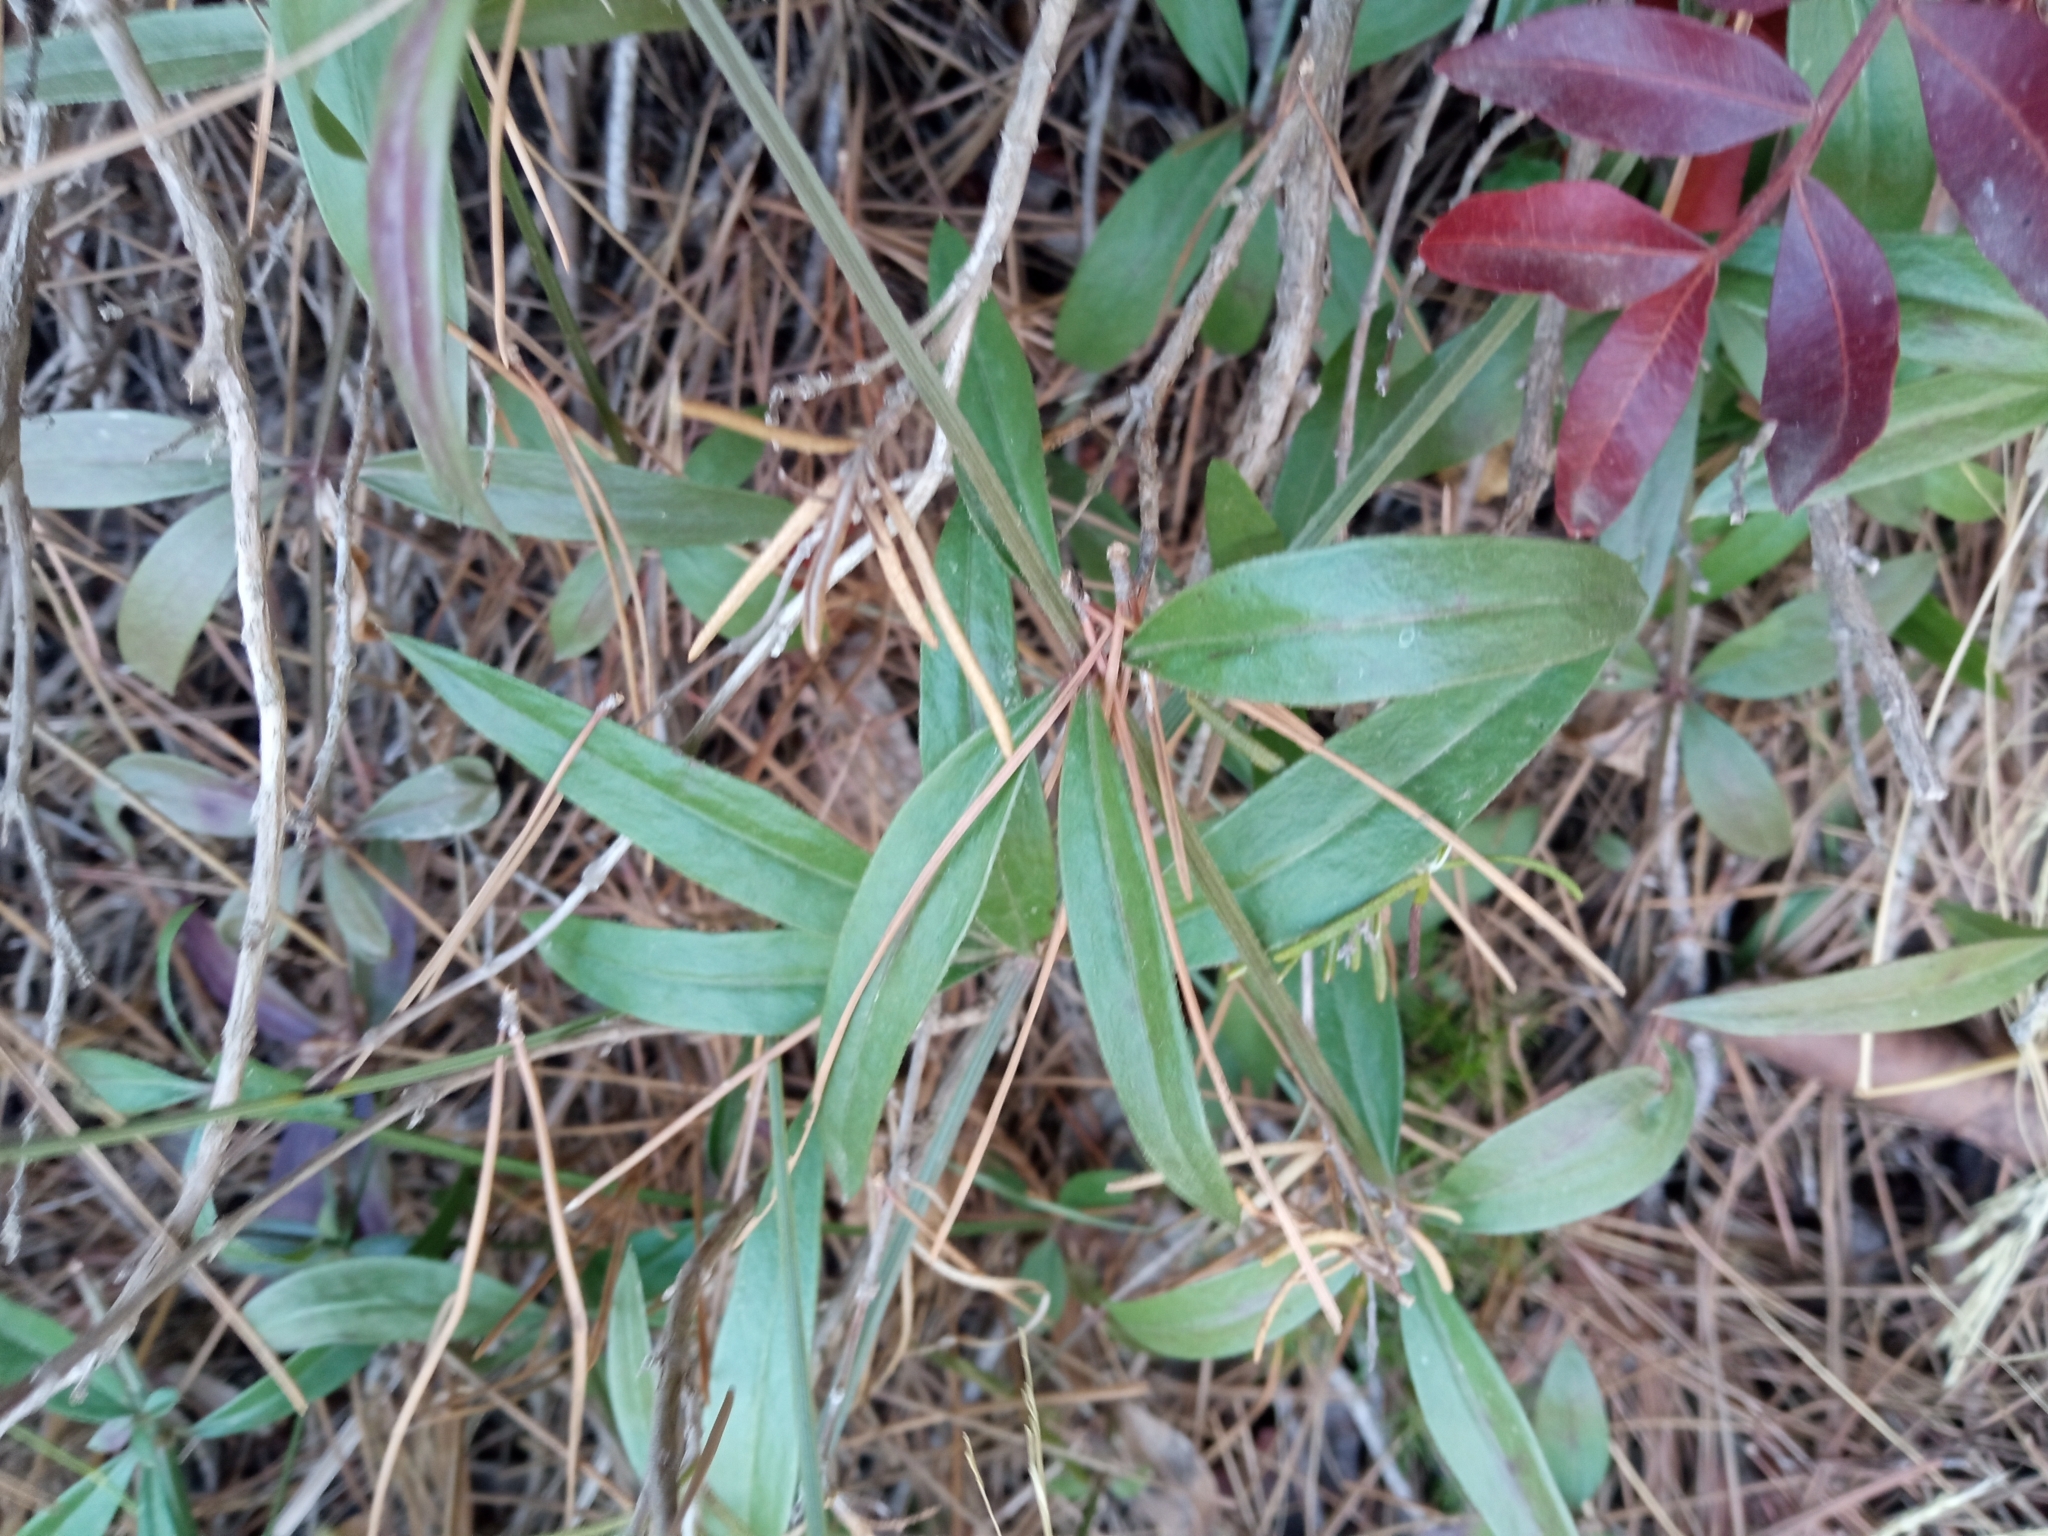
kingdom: Plantae
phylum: Tracheophyta
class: Magnoliopsida
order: Gentianales
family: Rubiaceae
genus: Rubia
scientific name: Rubia peregrina
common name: Wild madder
